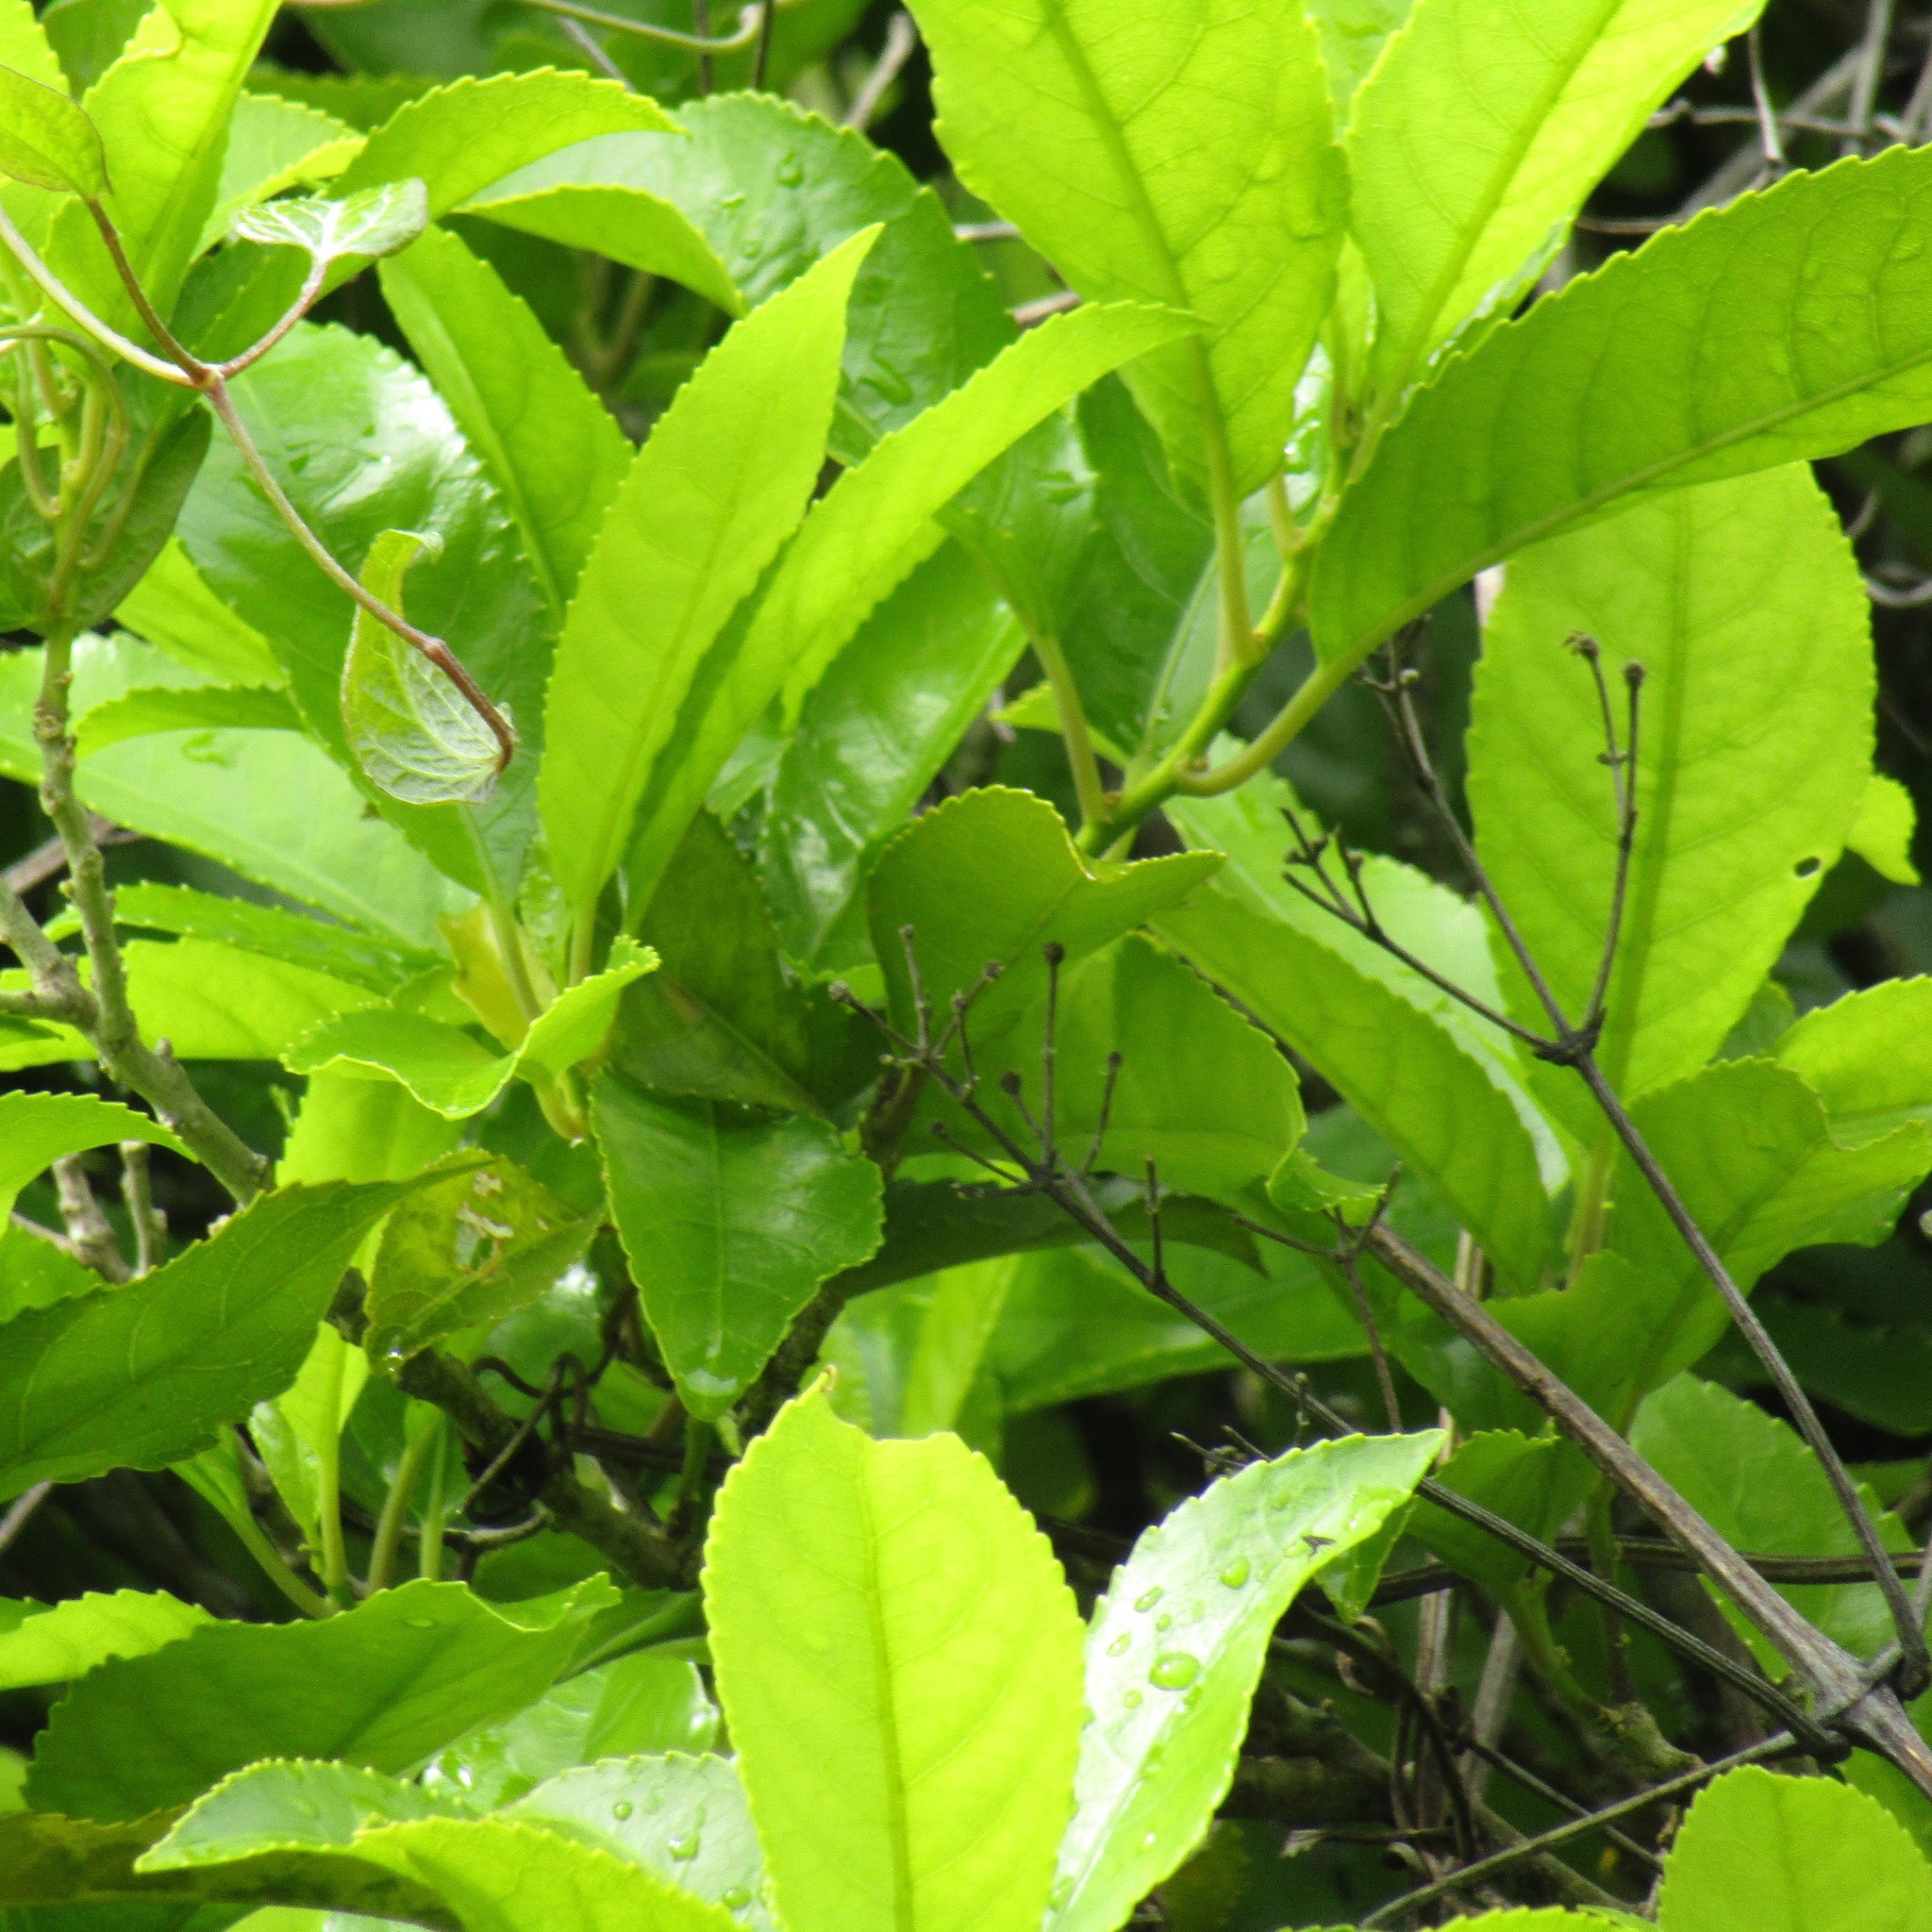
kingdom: Plantae
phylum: Tracheophyta
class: Magnoliopsida
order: Malpighiales
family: Violaceae
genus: Melicytus
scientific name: Melicytus ramiflorus
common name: Mahoe
